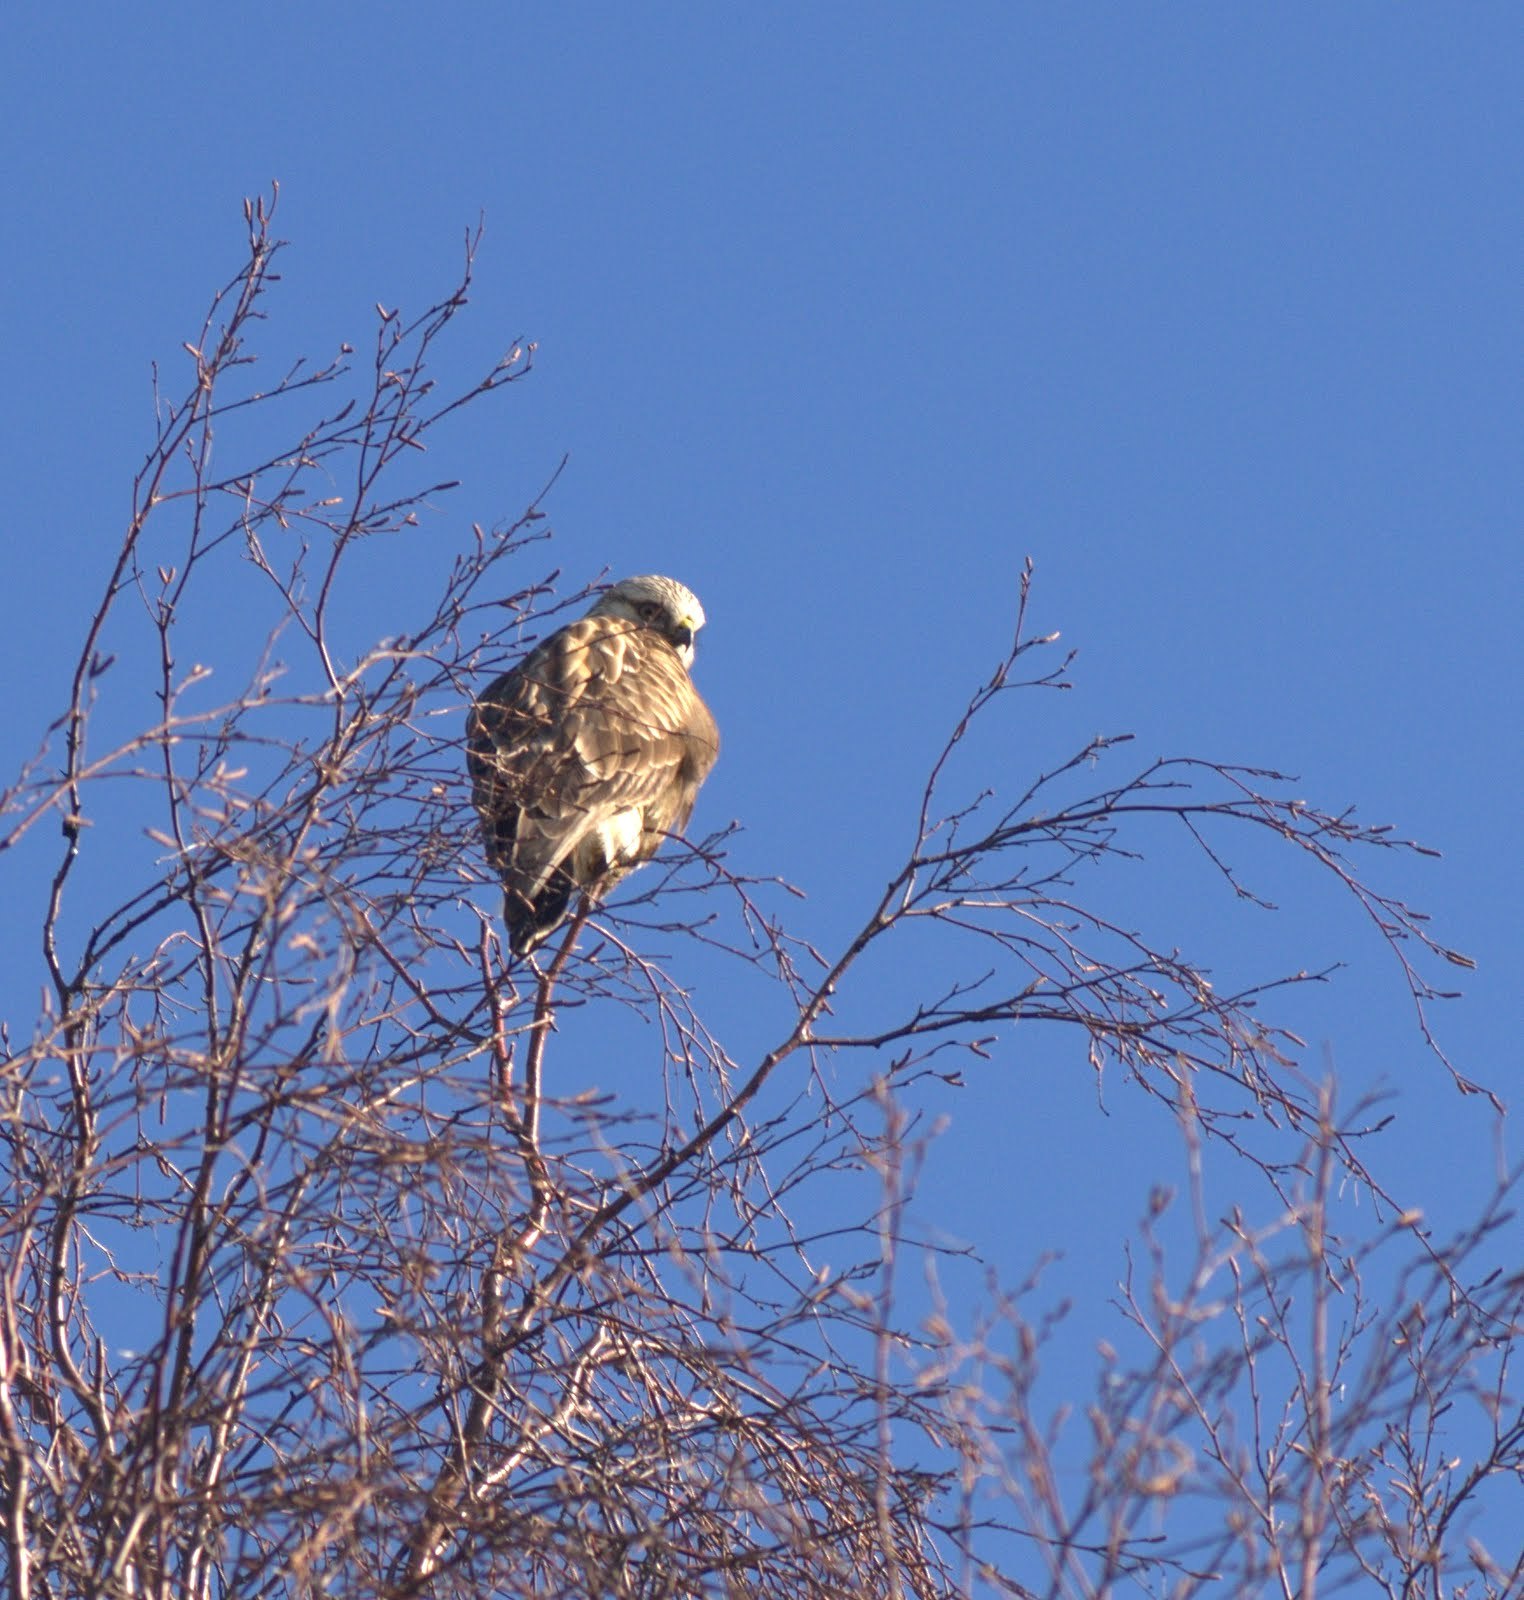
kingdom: Animalia
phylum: Chordata
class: Aves
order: Accipitriformes
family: Accipitridae
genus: Buteo
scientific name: Buteo lagopus
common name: Rough-legged buzzard
